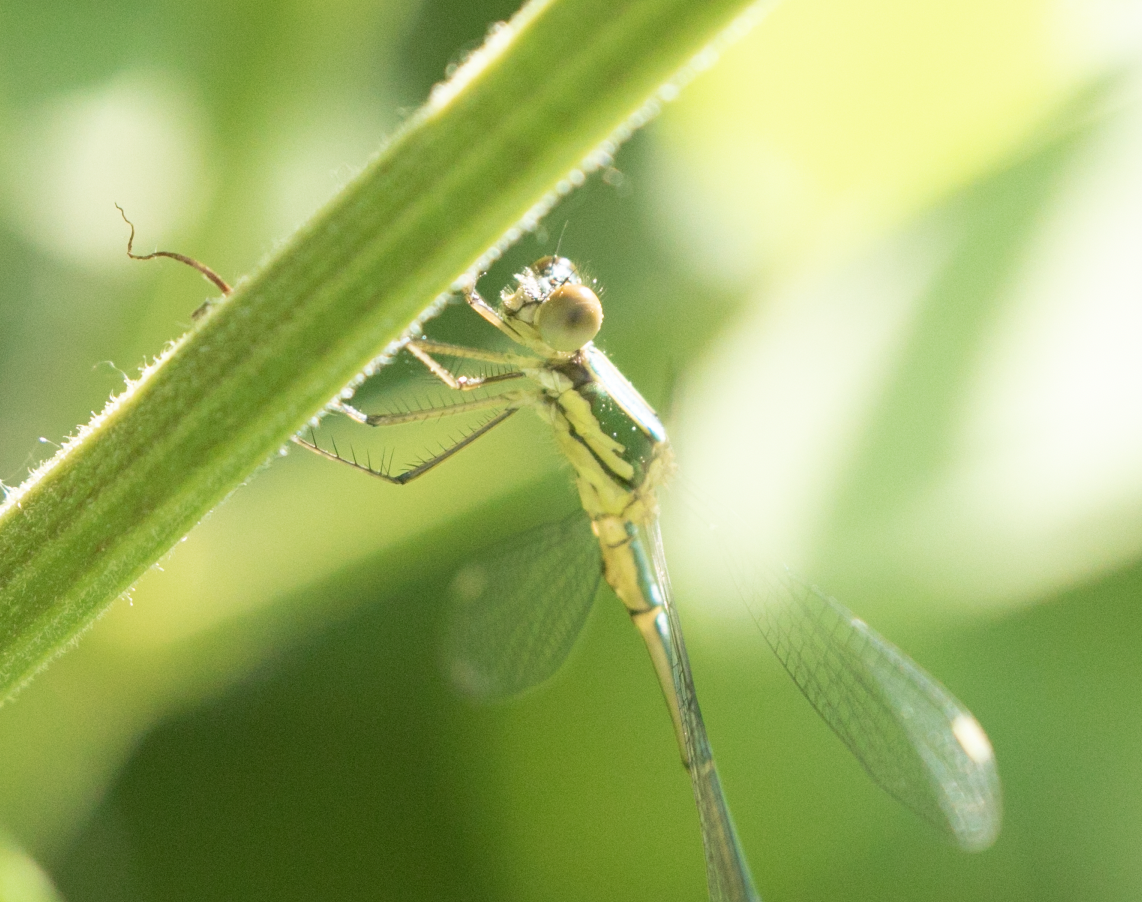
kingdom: Animalia
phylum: Arthropoda
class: Insecta
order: Odonata
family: Lestidae
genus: Chalcolestes
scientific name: Chalcolestes parvidens
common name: Eastern willow spreadwing
